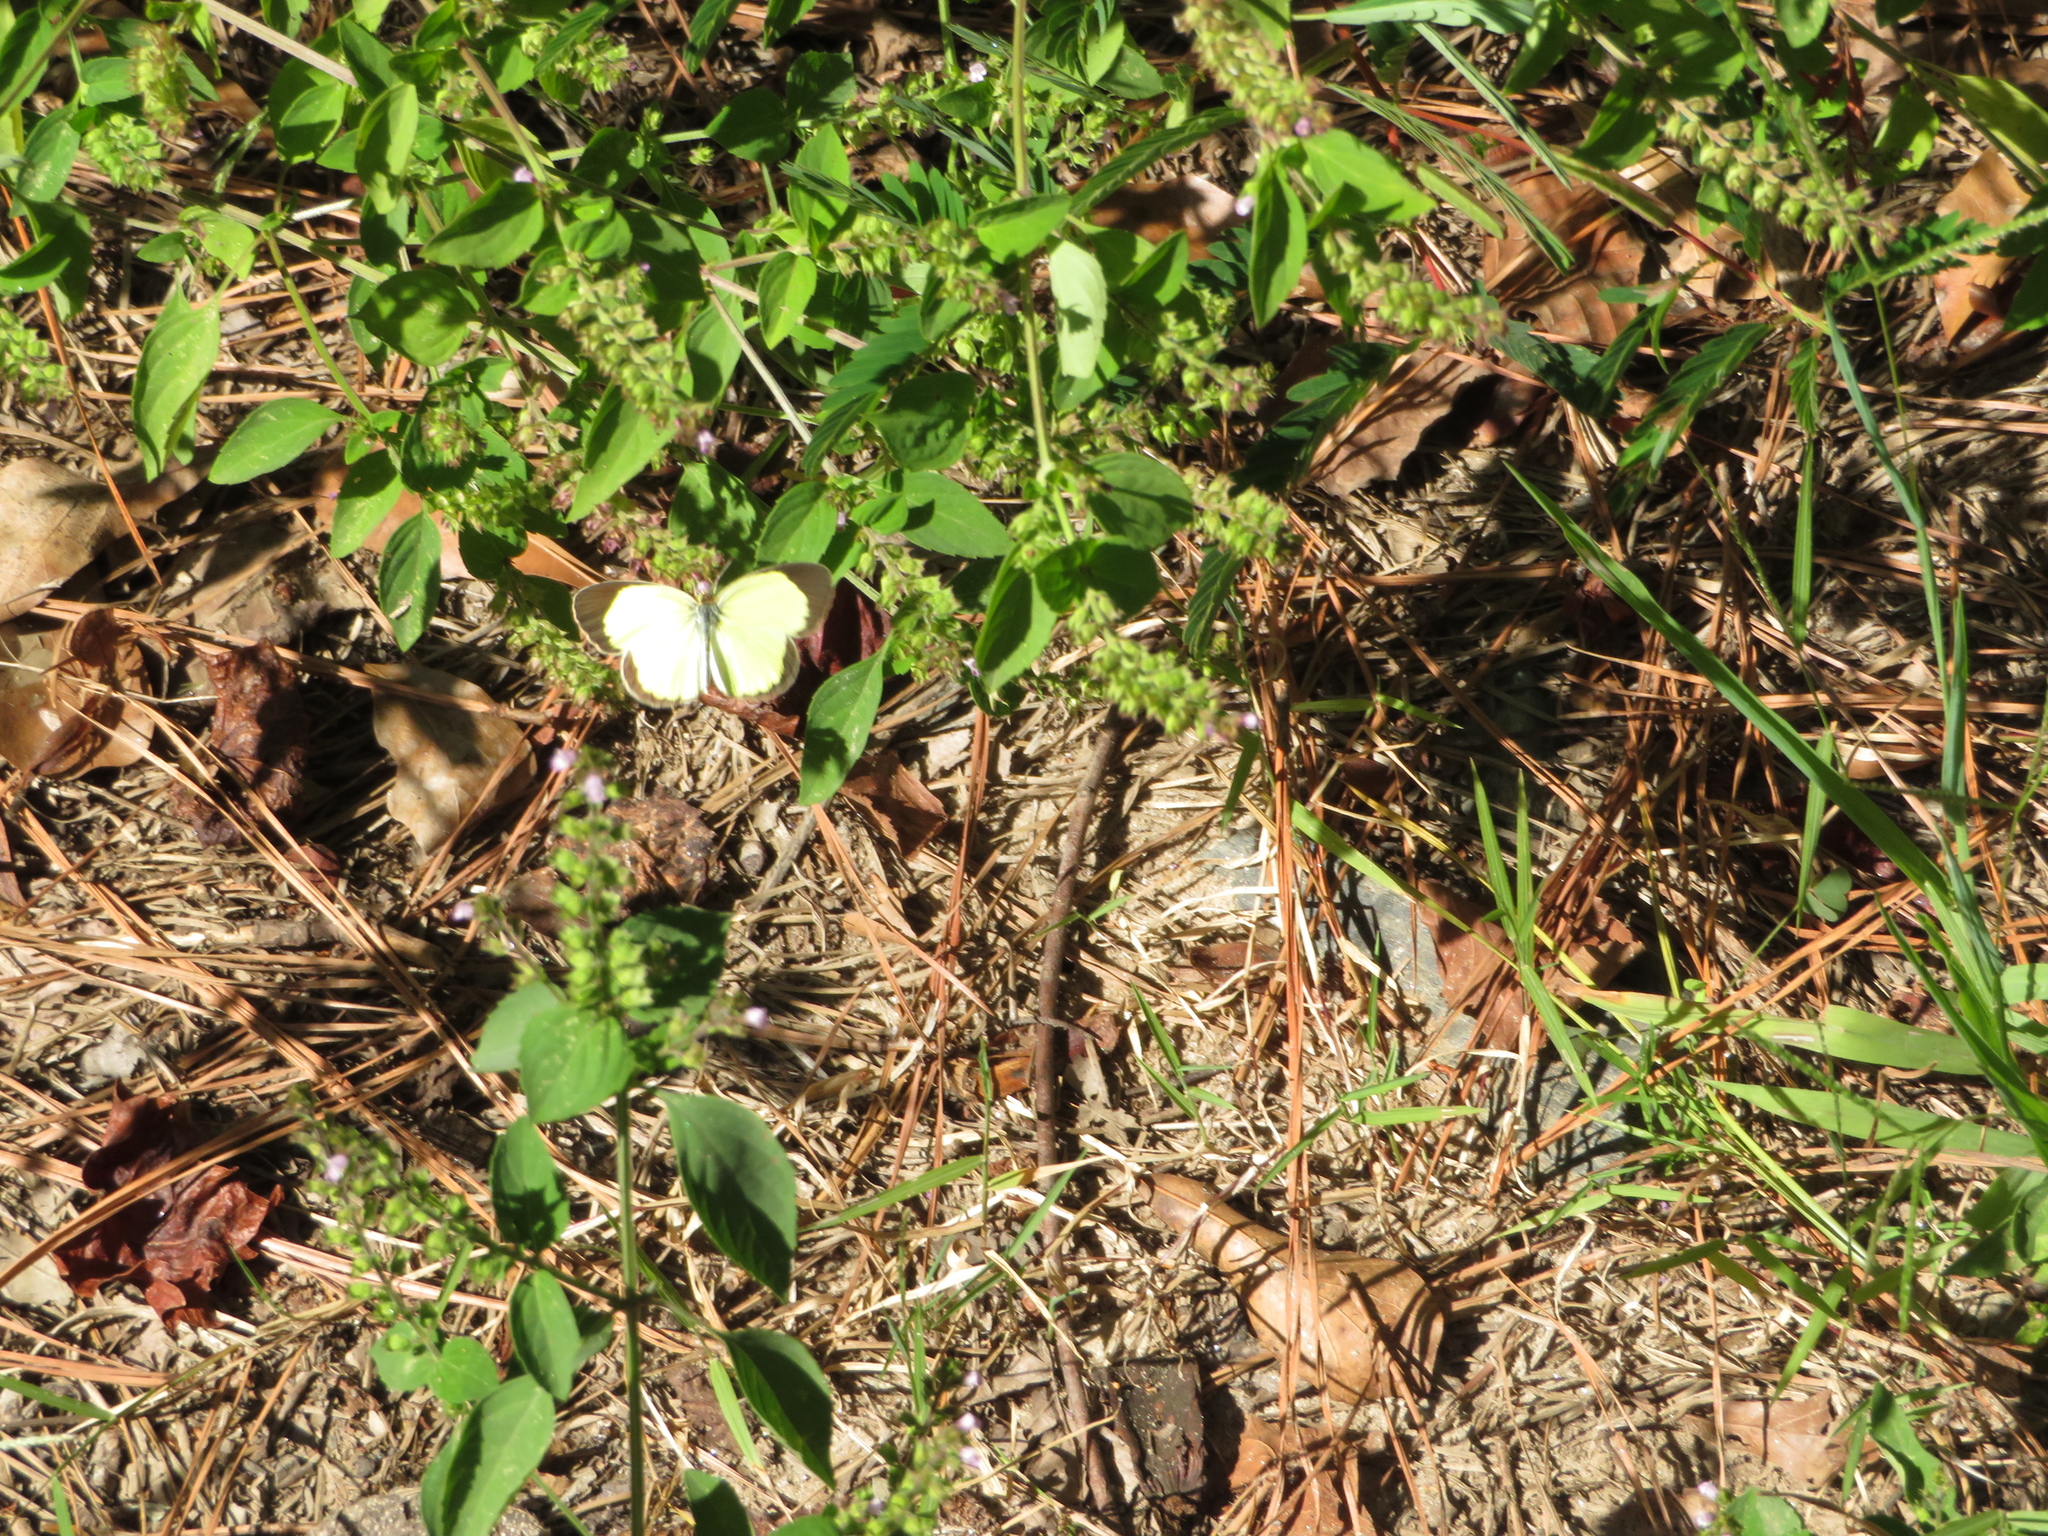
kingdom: Animalia
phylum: Arthropoda
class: Insecta
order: Lepidoptera
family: Pieridae
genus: Pyrisitia
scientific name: Pyrisitia lisa
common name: Little yellow
